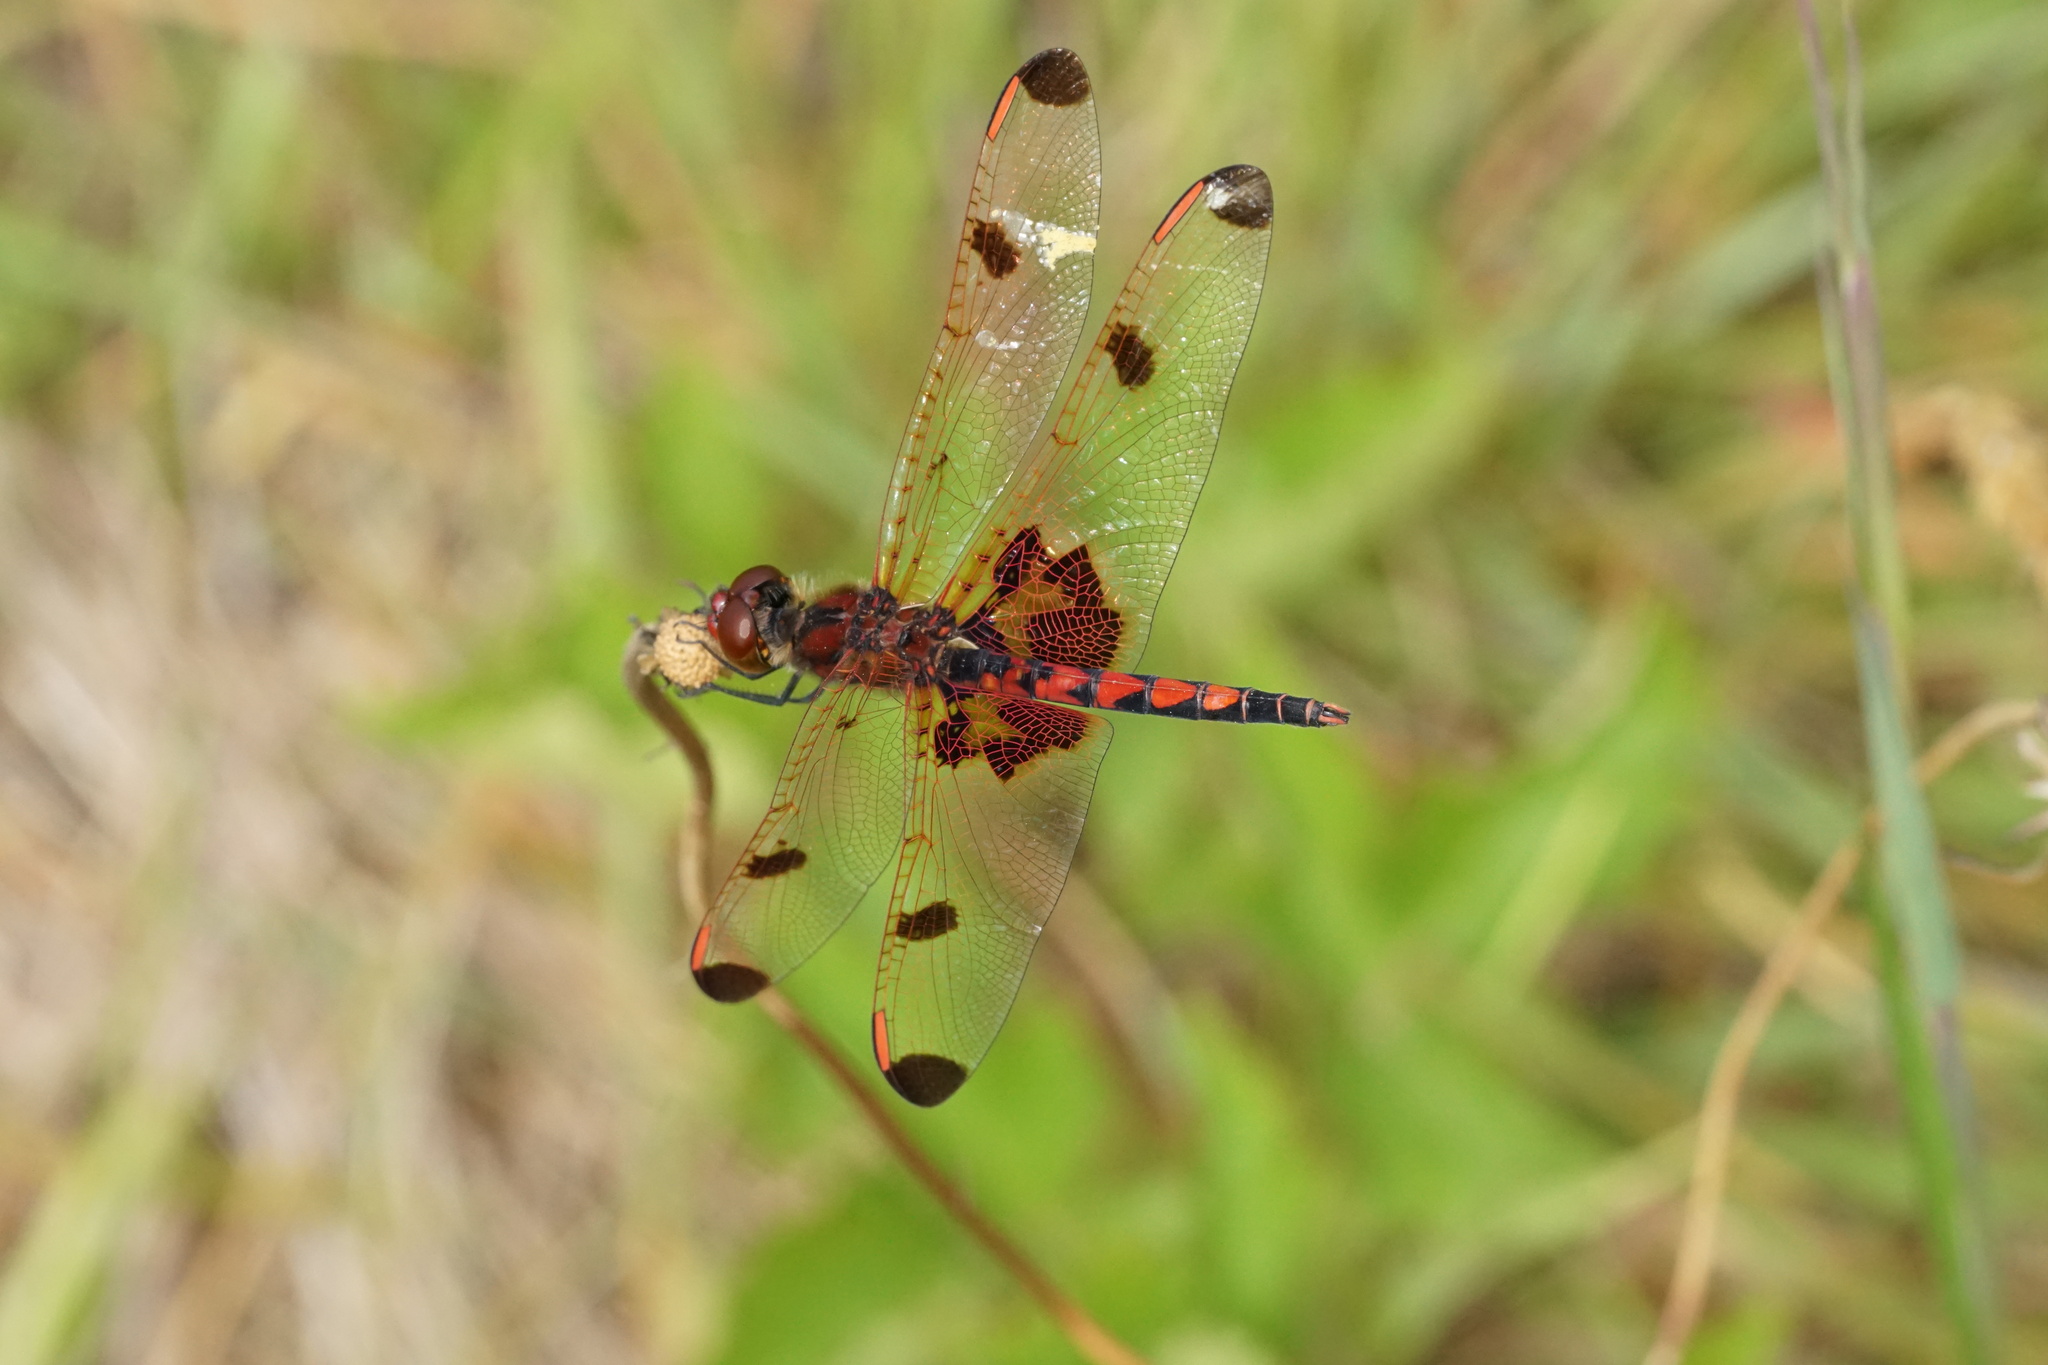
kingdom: Animalia
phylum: Arthropoda
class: Insecta
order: Odonata
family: Libellulidae
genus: Celithemis
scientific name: Celithemis elisa
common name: Calico pennant
